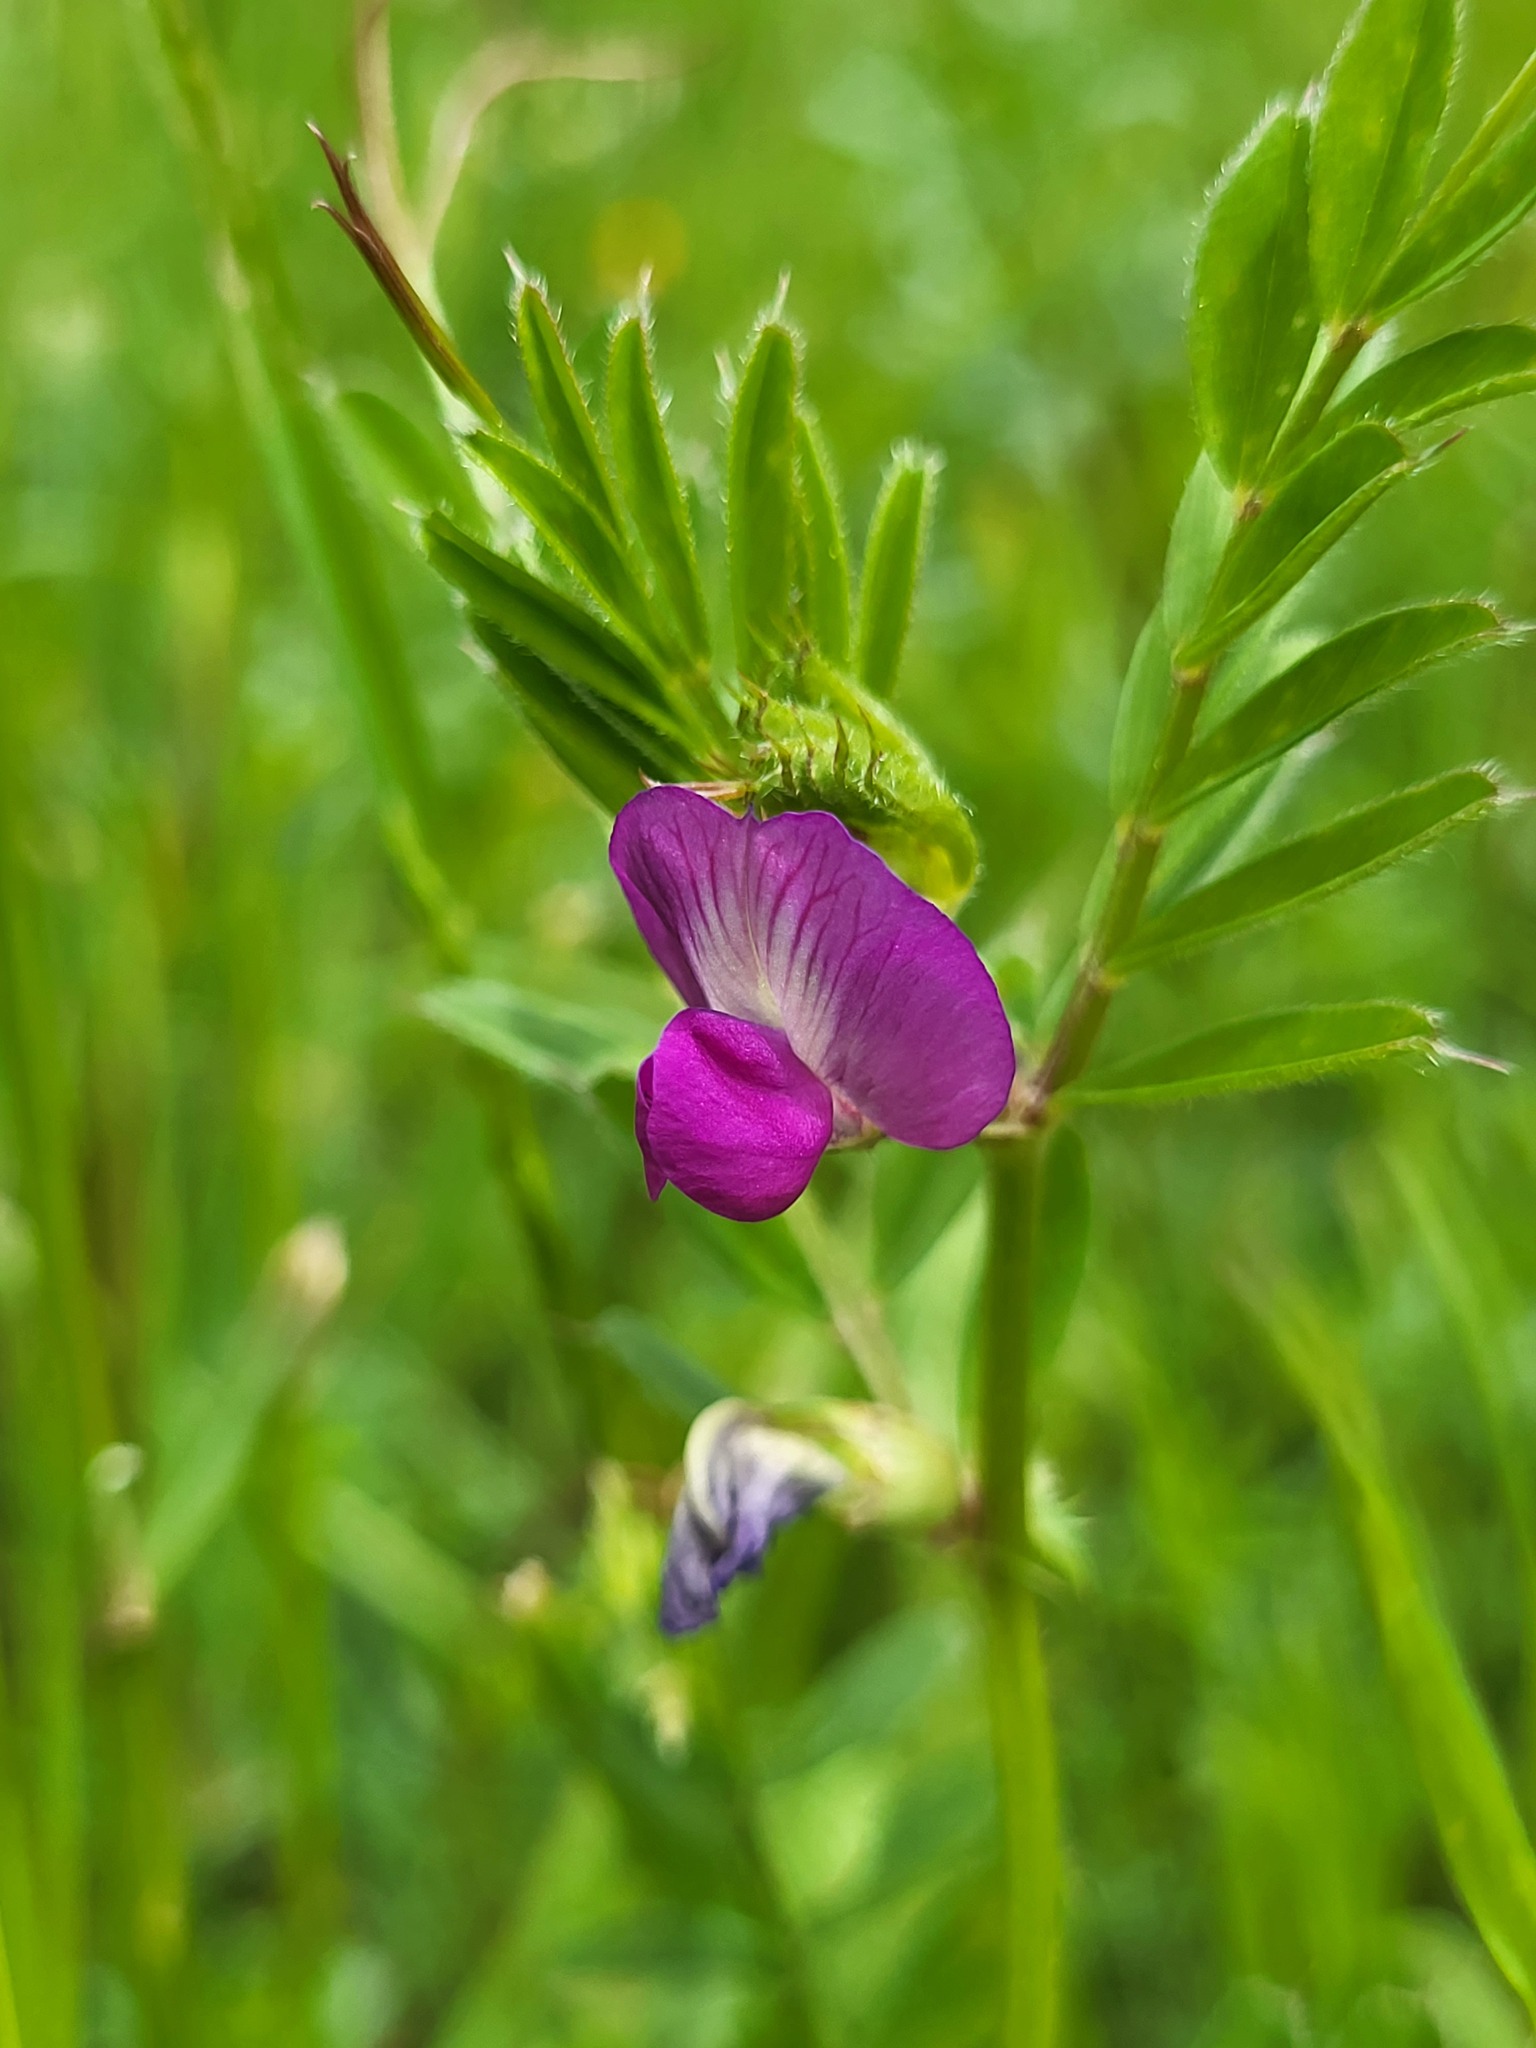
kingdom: Plantae
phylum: Tracheophyta
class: Magnoliopsida
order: Fabales
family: Fabaceae
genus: Vicia
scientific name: Vicia sativa
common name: Garden vetch
